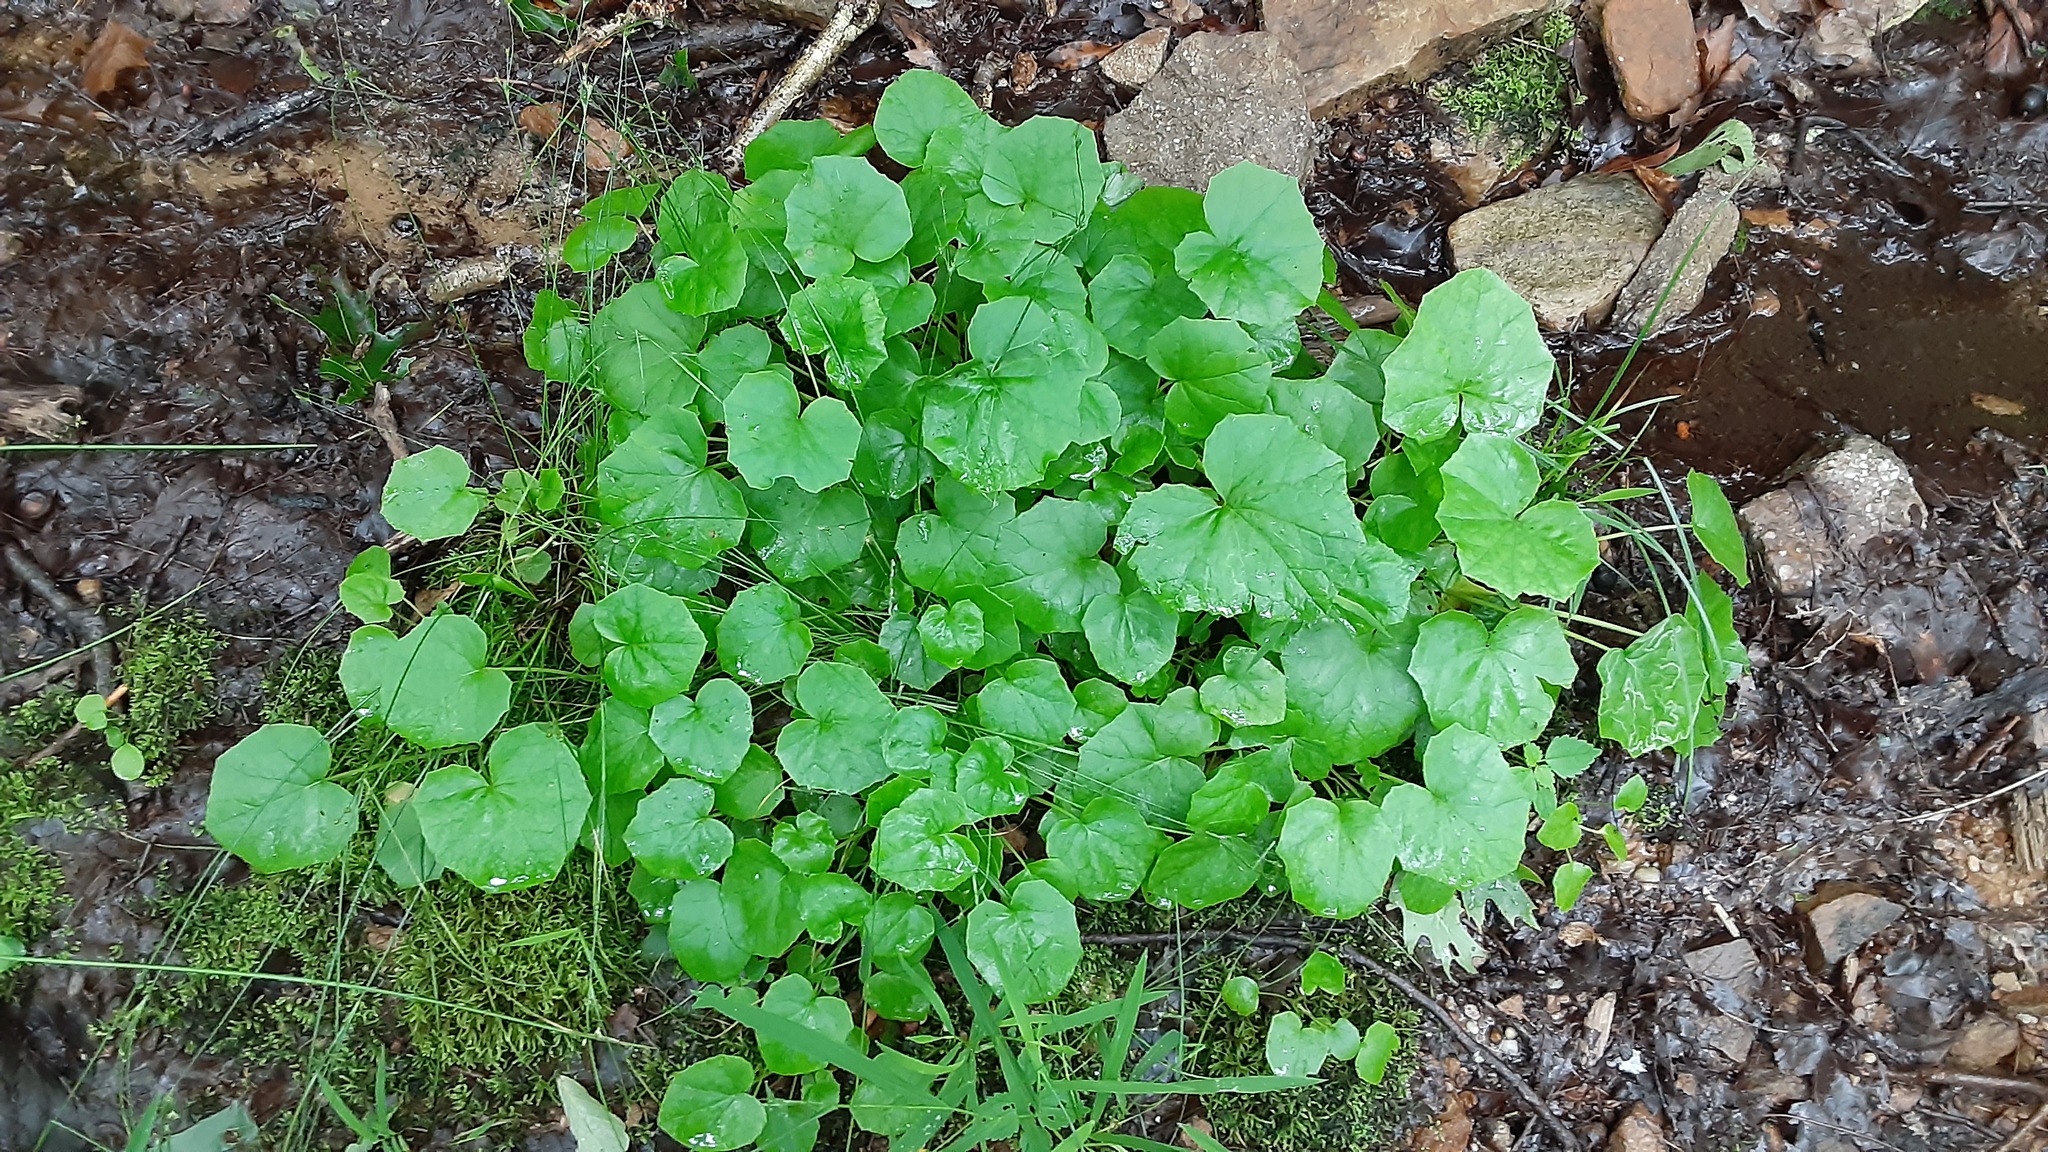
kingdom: Plantae
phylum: Tracheophyta
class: Magnoliopsida
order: Asterales
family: Asteraceae
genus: Tussilago
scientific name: Tussilago farfara
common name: Coltsfoot
